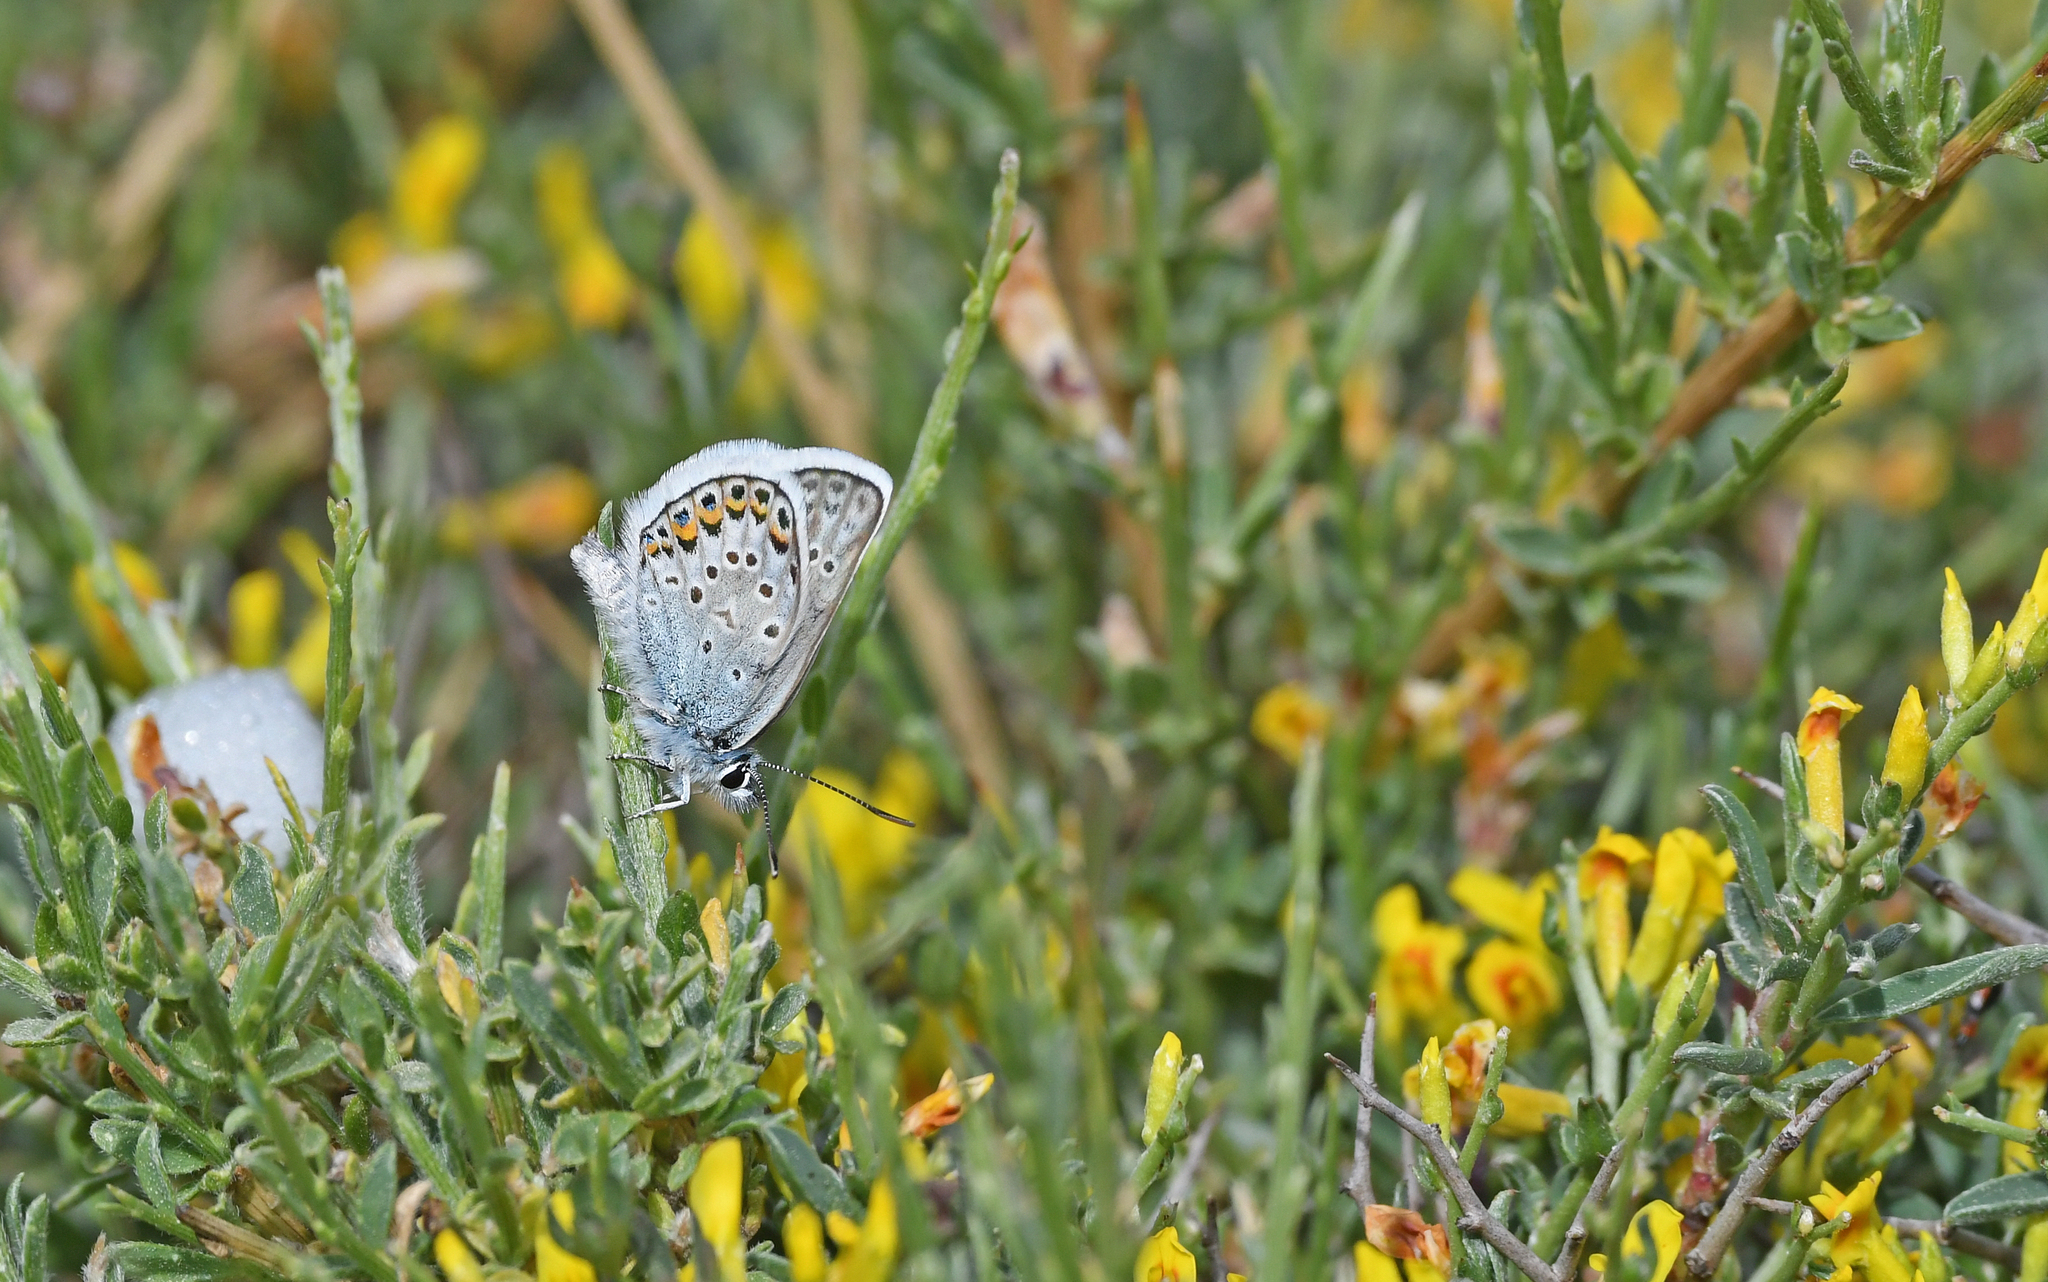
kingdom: Animalia
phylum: Arthropoda
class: Insecta
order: Lepidoptera
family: Lycaenidae
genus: Plebejus
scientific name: Plebejus argus
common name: Silver-studded blue
